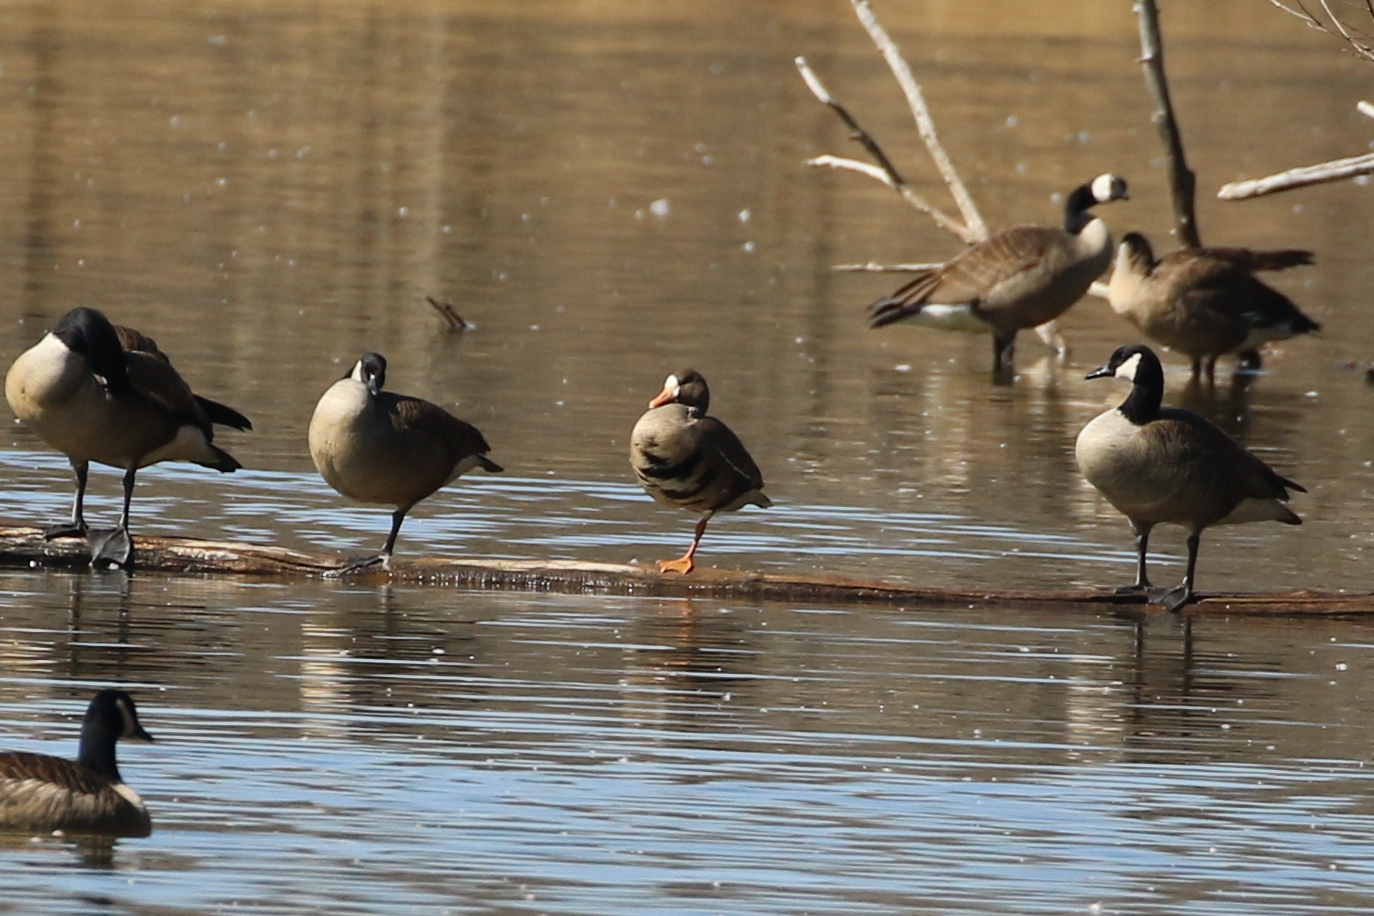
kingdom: Animalia
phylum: Chordata
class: Aves
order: Anseriformes
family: Anatidae
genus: Anser
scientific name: Anser albifrons
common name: Greater white-fronted goose
